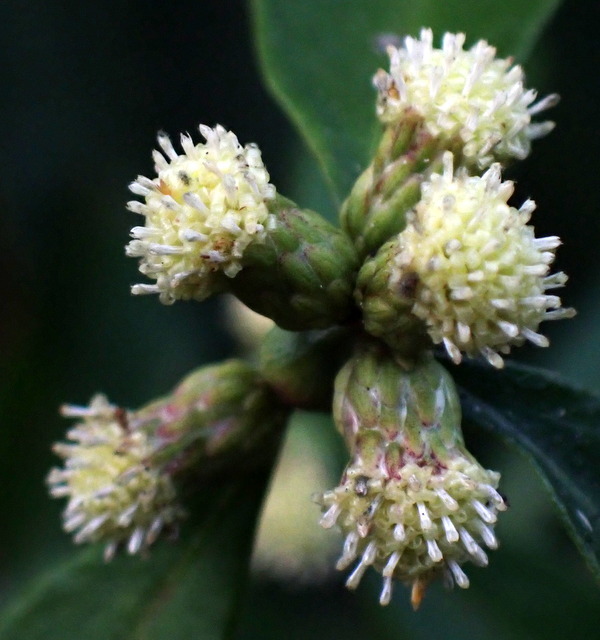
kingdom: Plantae
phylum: Tracheophyta
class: Magnoliopsida
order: Asterales
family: Asteraceae
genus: Baccharis
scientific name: Baccharis glomeruliflora
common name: Silverling groundsel bush
